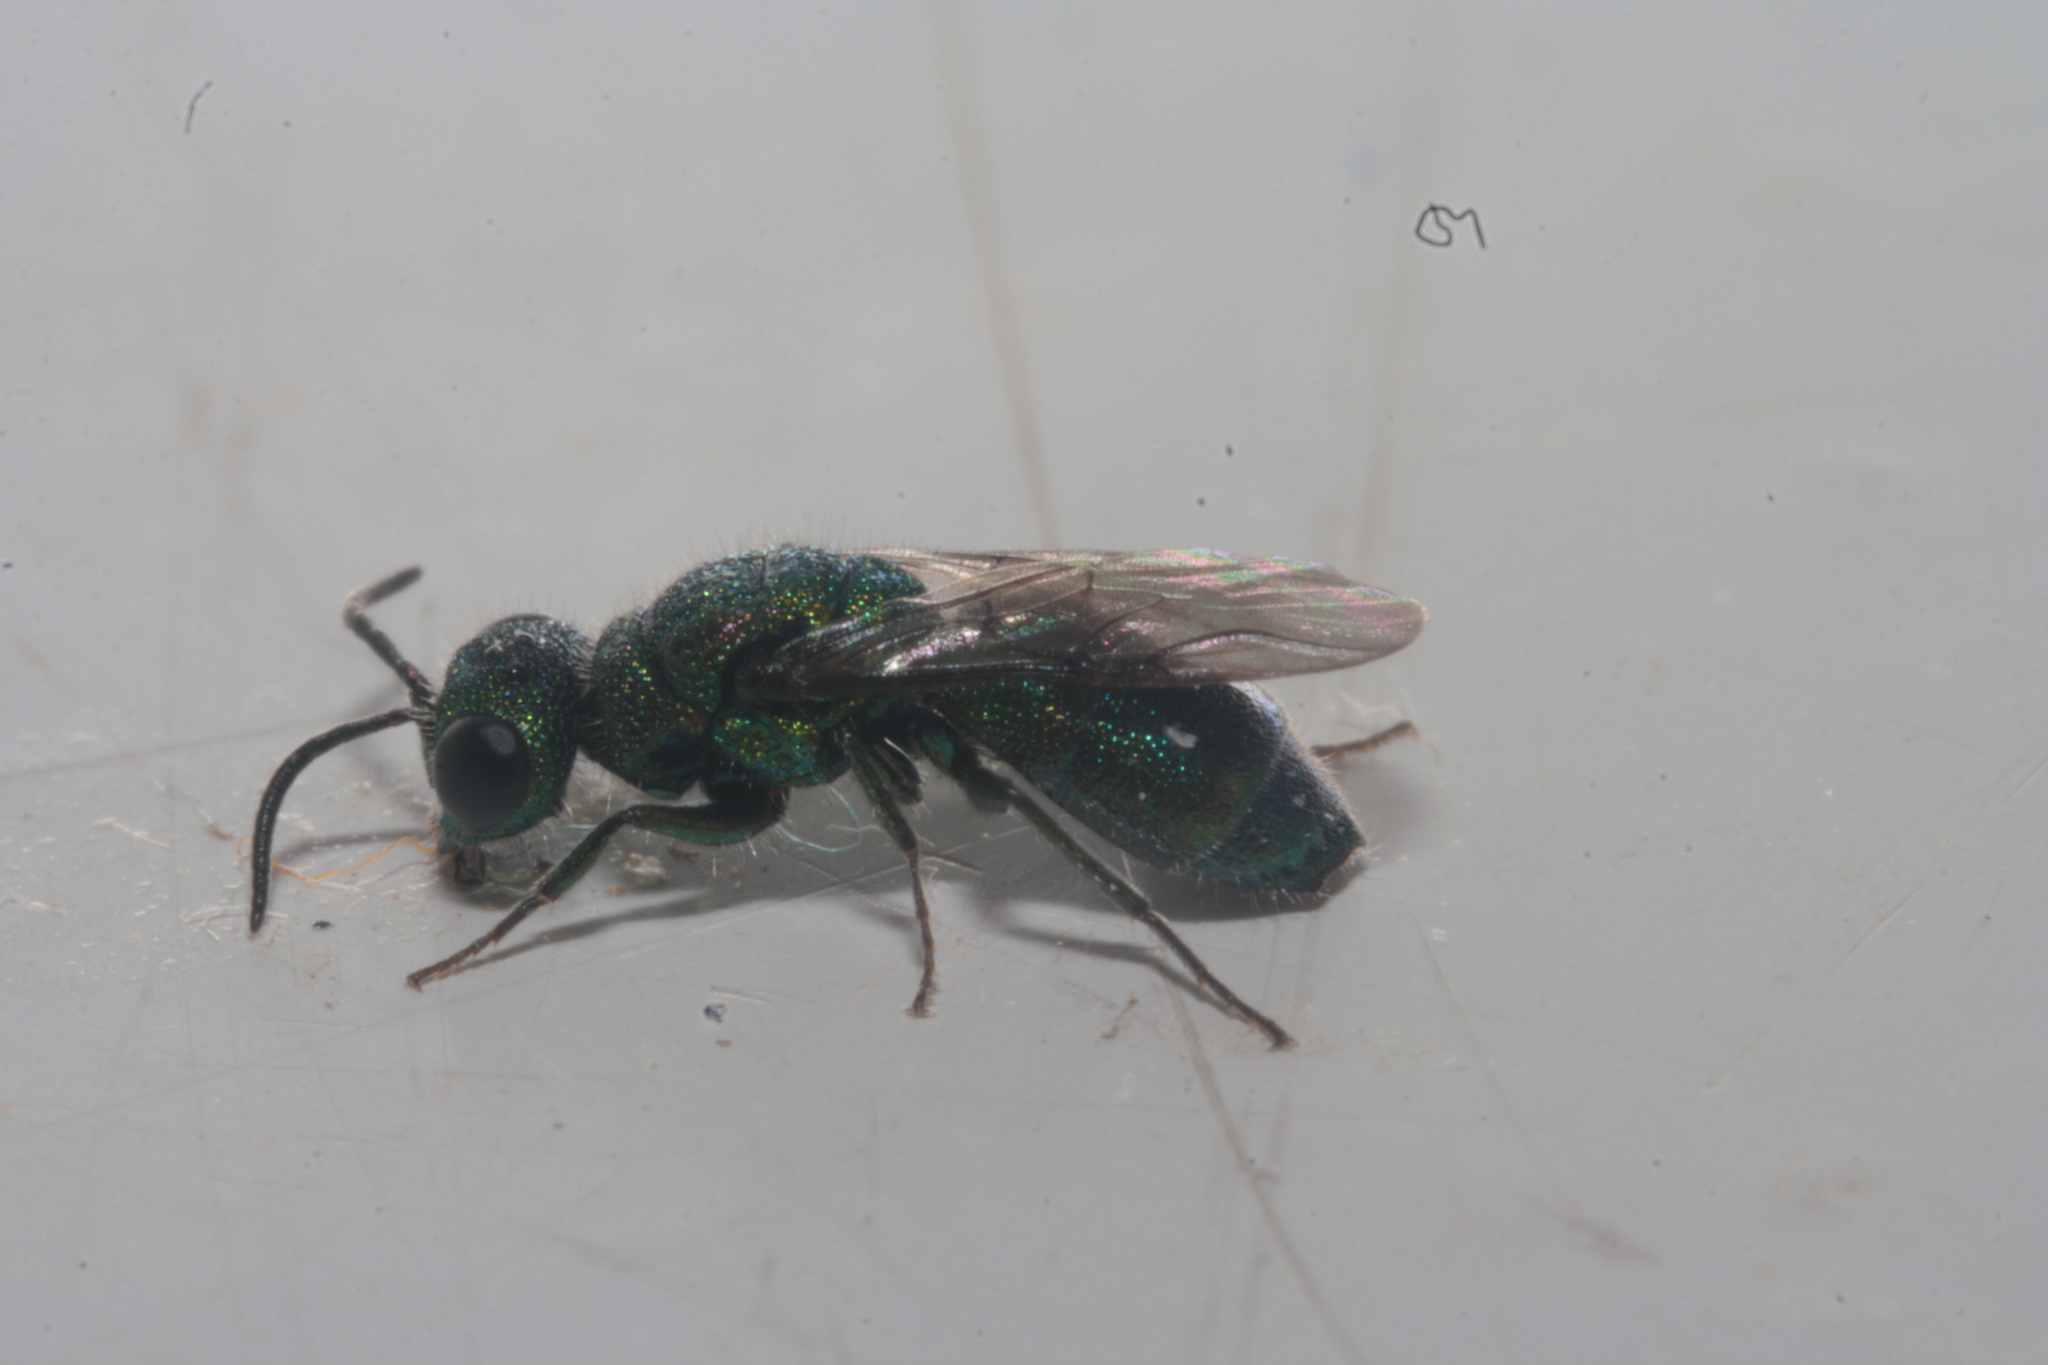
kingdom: Animalia
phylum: Arthropoda
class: Insecta
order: Hymenoptera
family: Pompilidae
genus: Pepsis
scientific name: Pepsis cyanea
